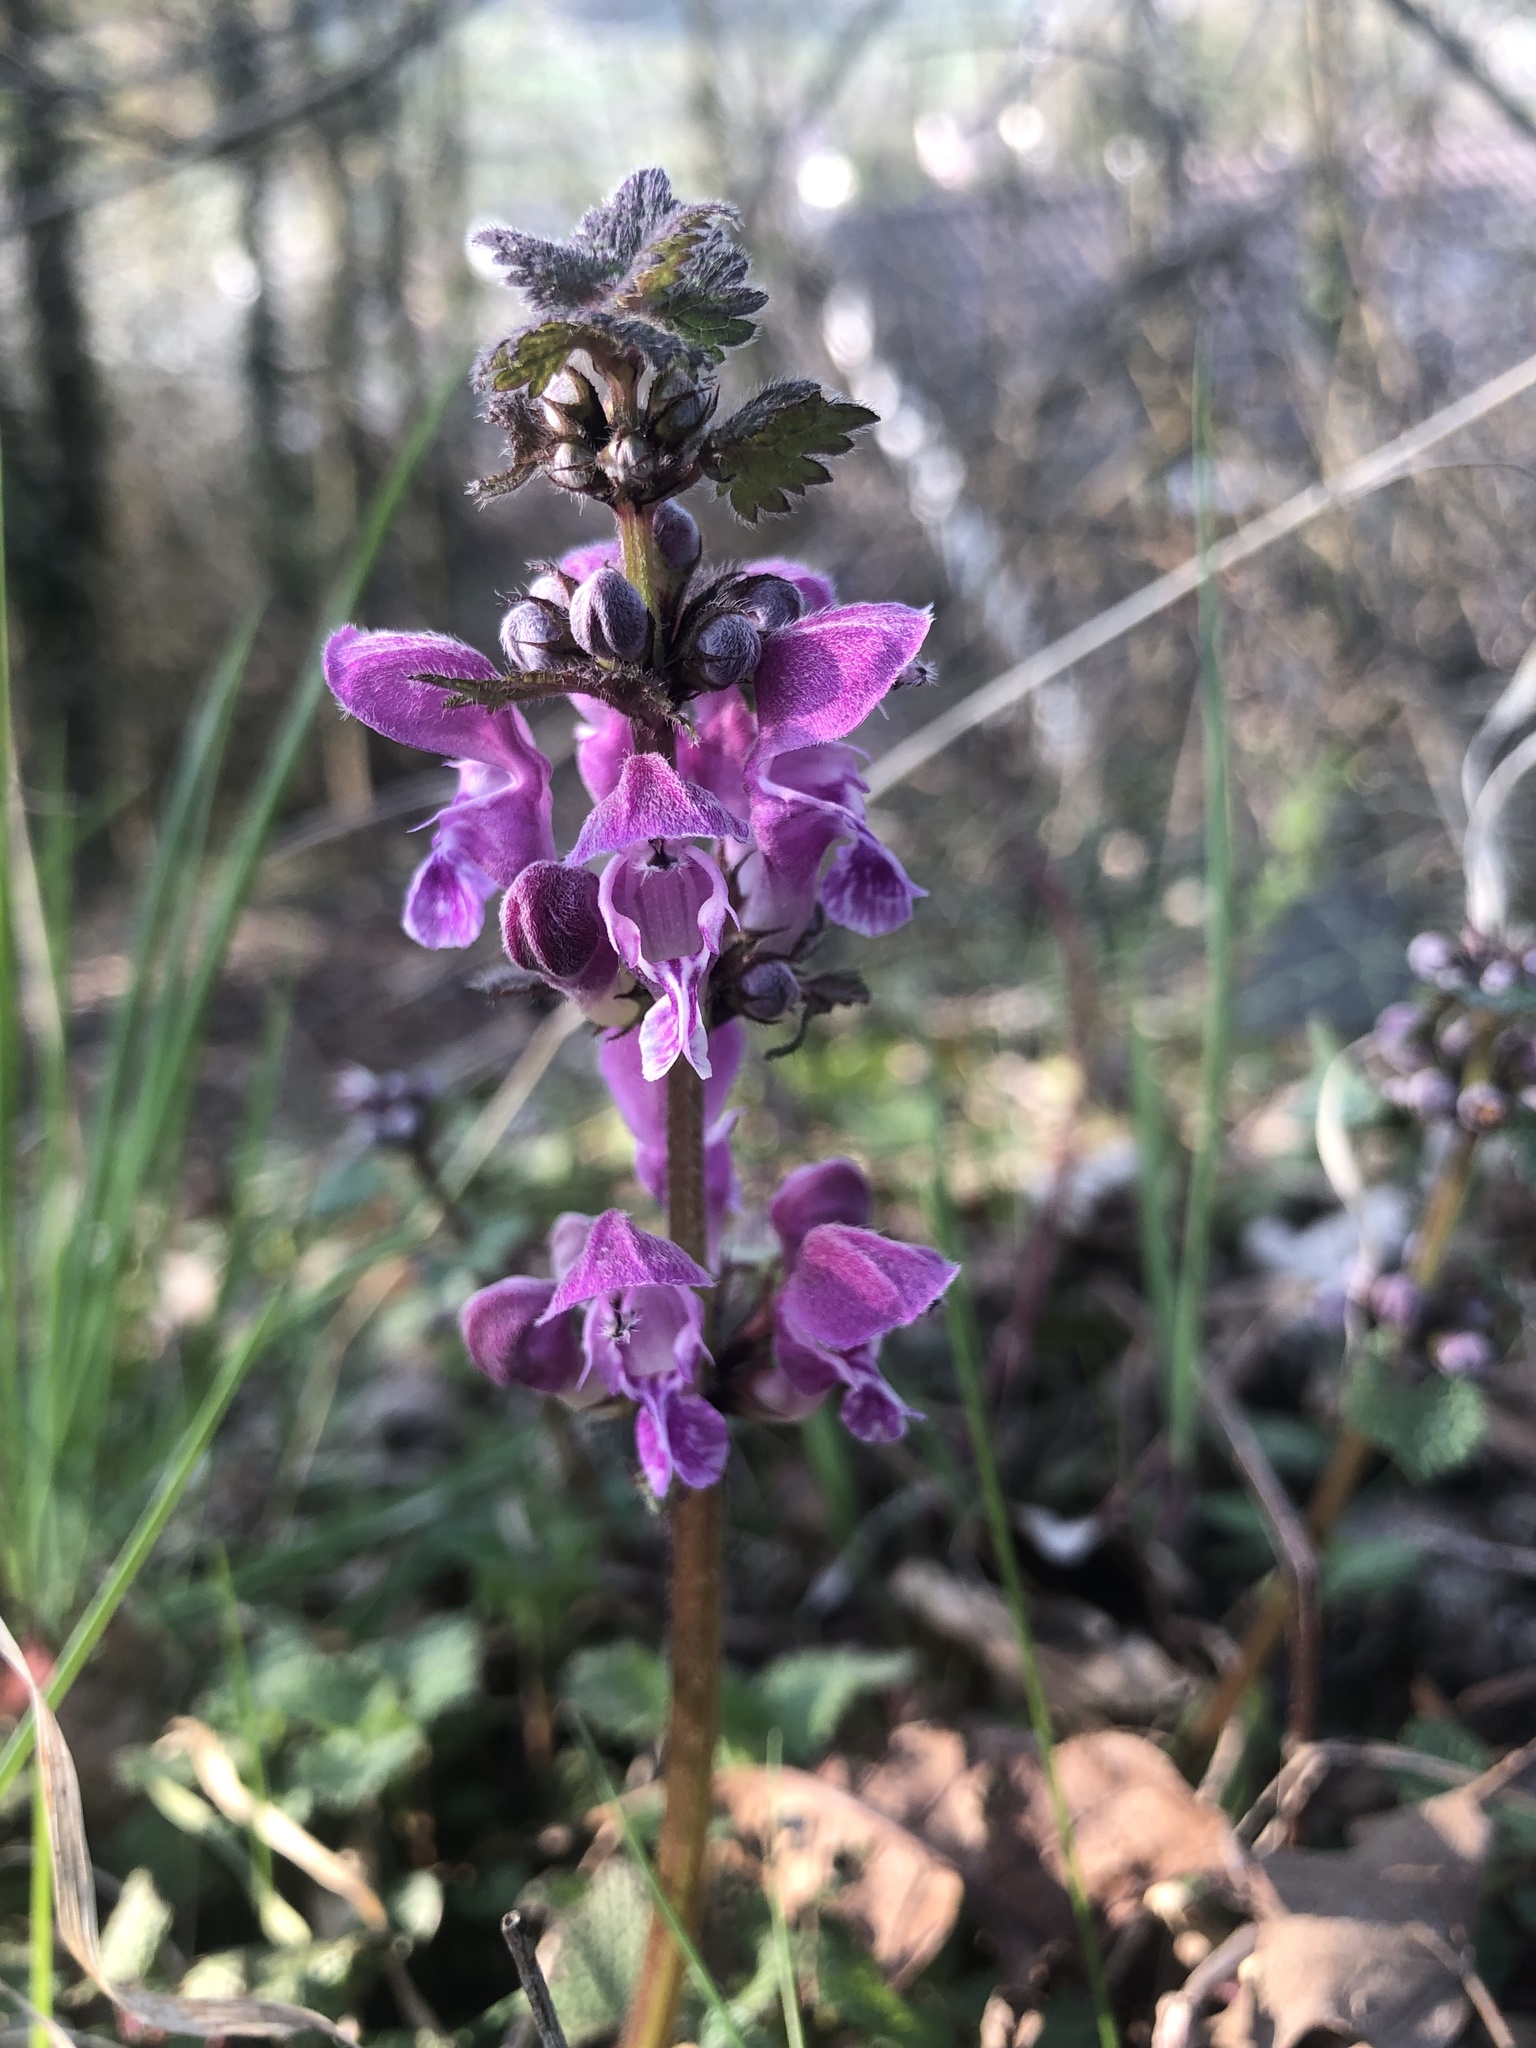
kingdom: Plantae
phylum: Tracheophyta
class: Magnoliopsida
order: Lamiales
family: Lamiaceae
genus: Lamium
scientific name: Lamium maculatum
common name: Spotted dead-nettle
